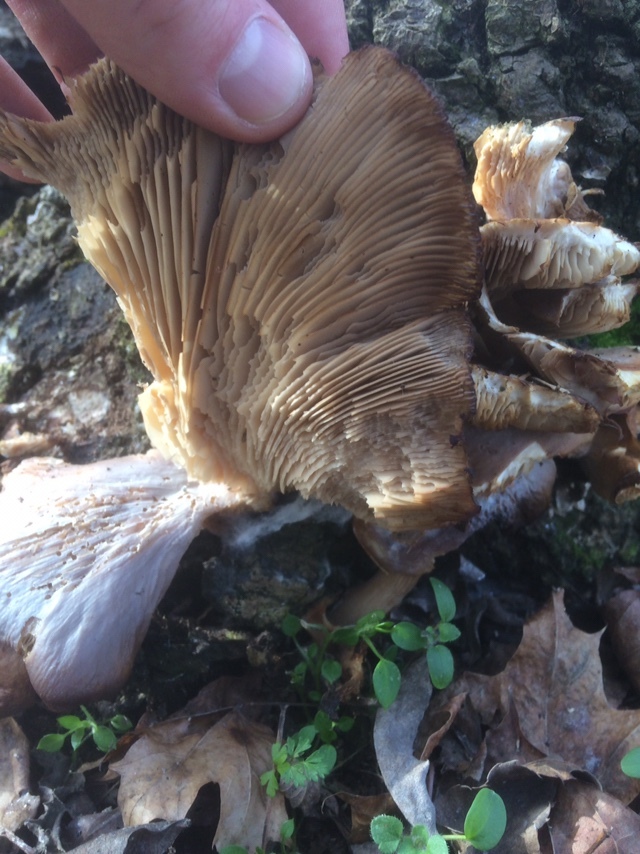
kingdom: Fungi
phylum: Basidiomycota
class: Agaricomycetes
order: Agaricales
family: Pleurotaceae
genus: Pleurotus
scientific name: Pleurotus ostreatus
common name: Oyster mushroom
